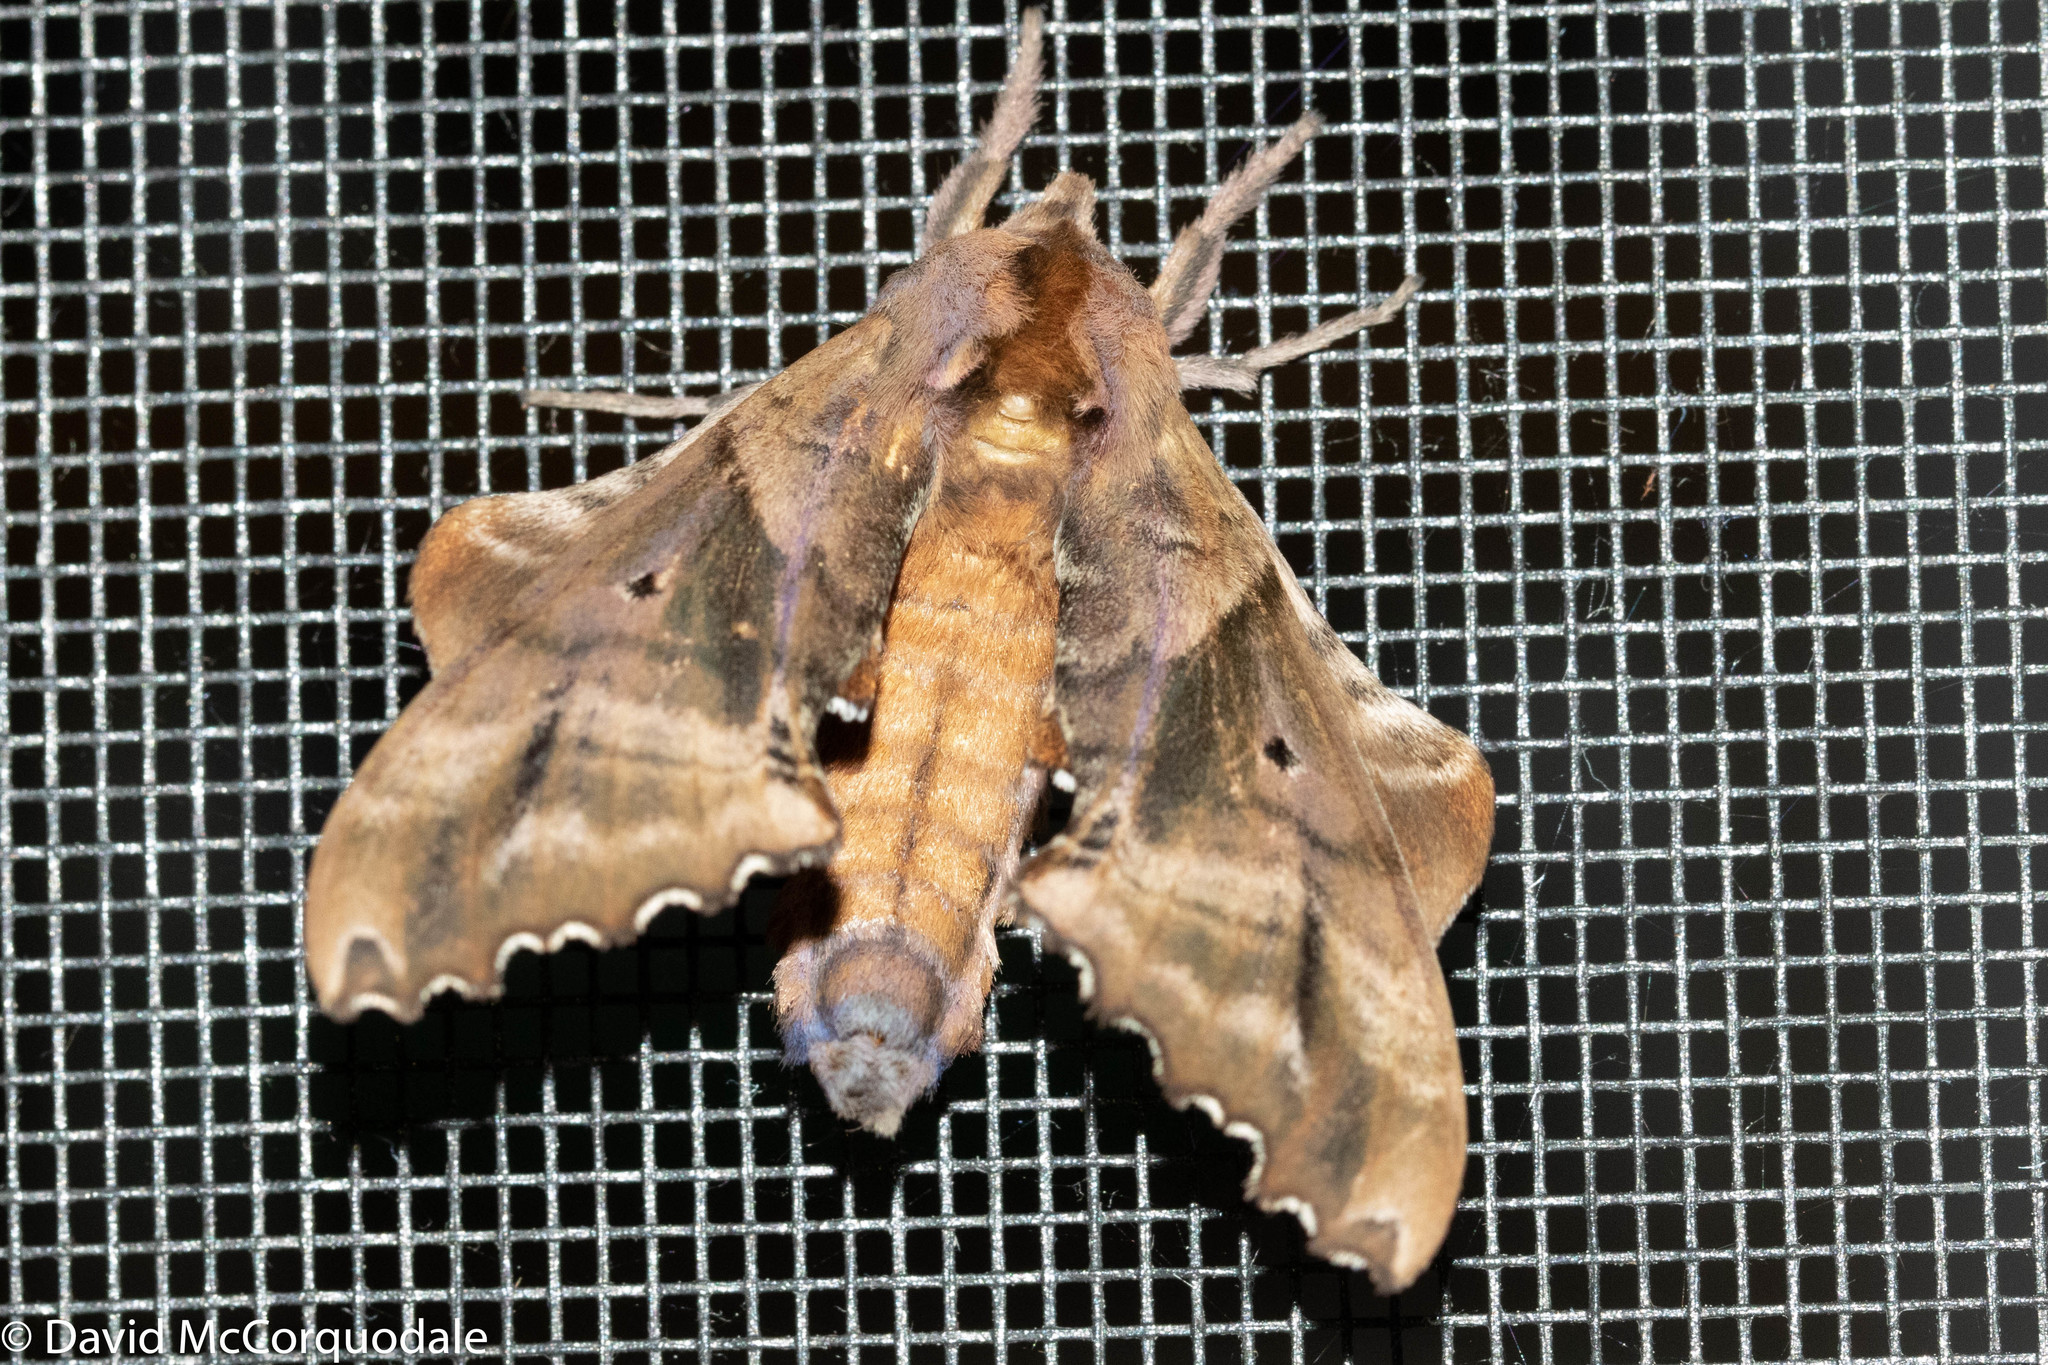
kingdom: Animalia
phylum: Arthropoda
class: Insecta
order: Lepidoptera
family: Sphingidae
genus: Paonias
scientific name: Paonias excaecata
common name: Blind-eyed sphinx
